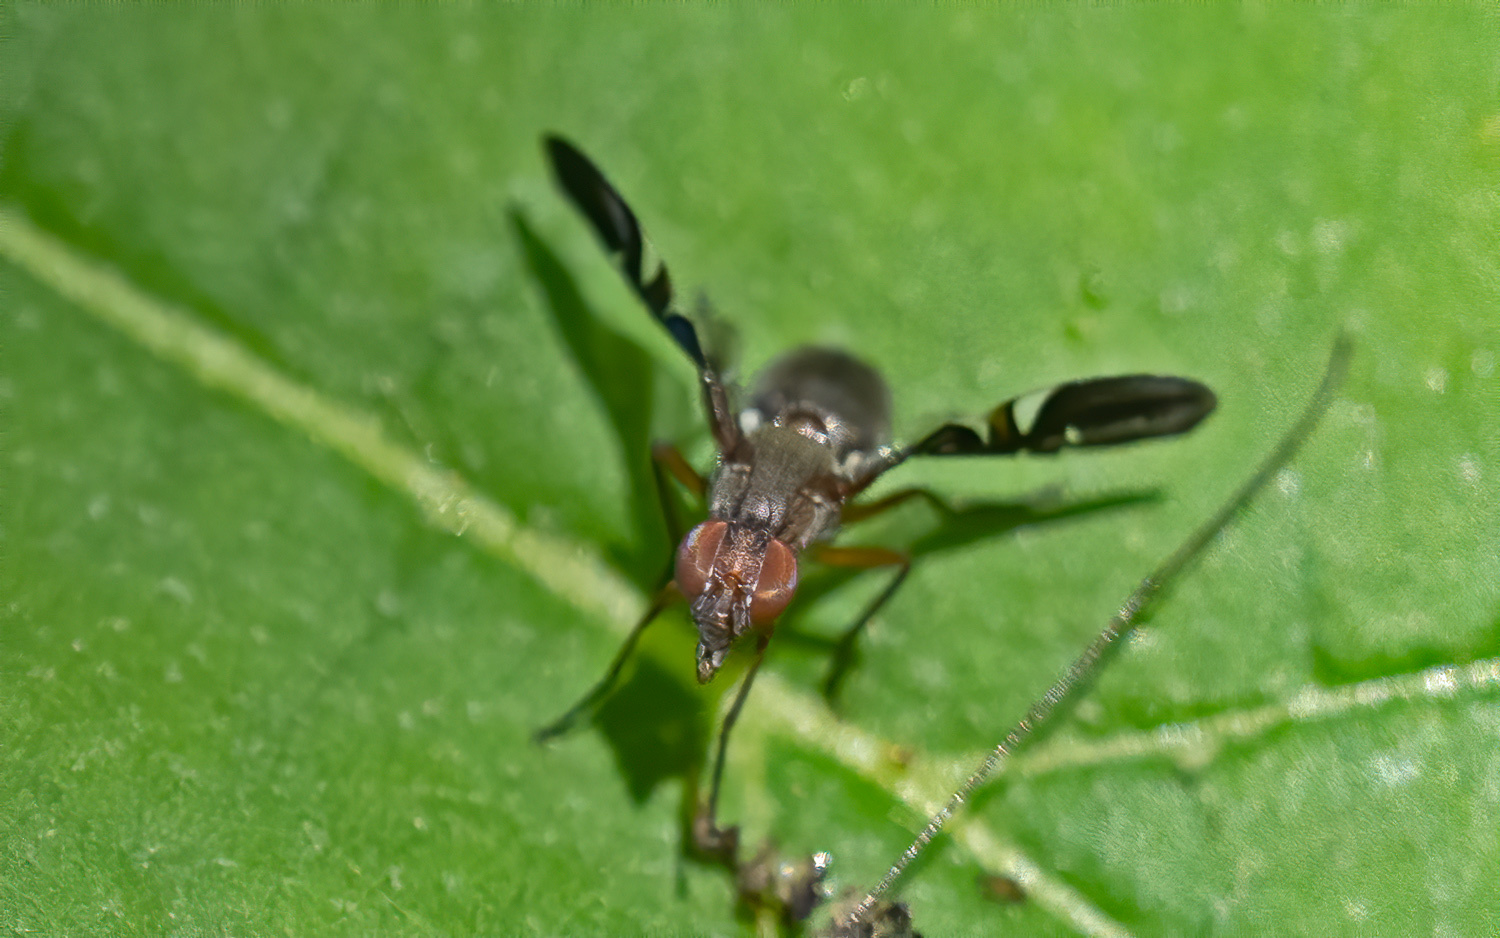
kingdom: Animalia
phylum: Arthropoda
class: Insecta
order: Diptera
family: Ulidiidae
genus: Delphinia
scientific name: Delphinia picta
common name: Common picture-winged fly
